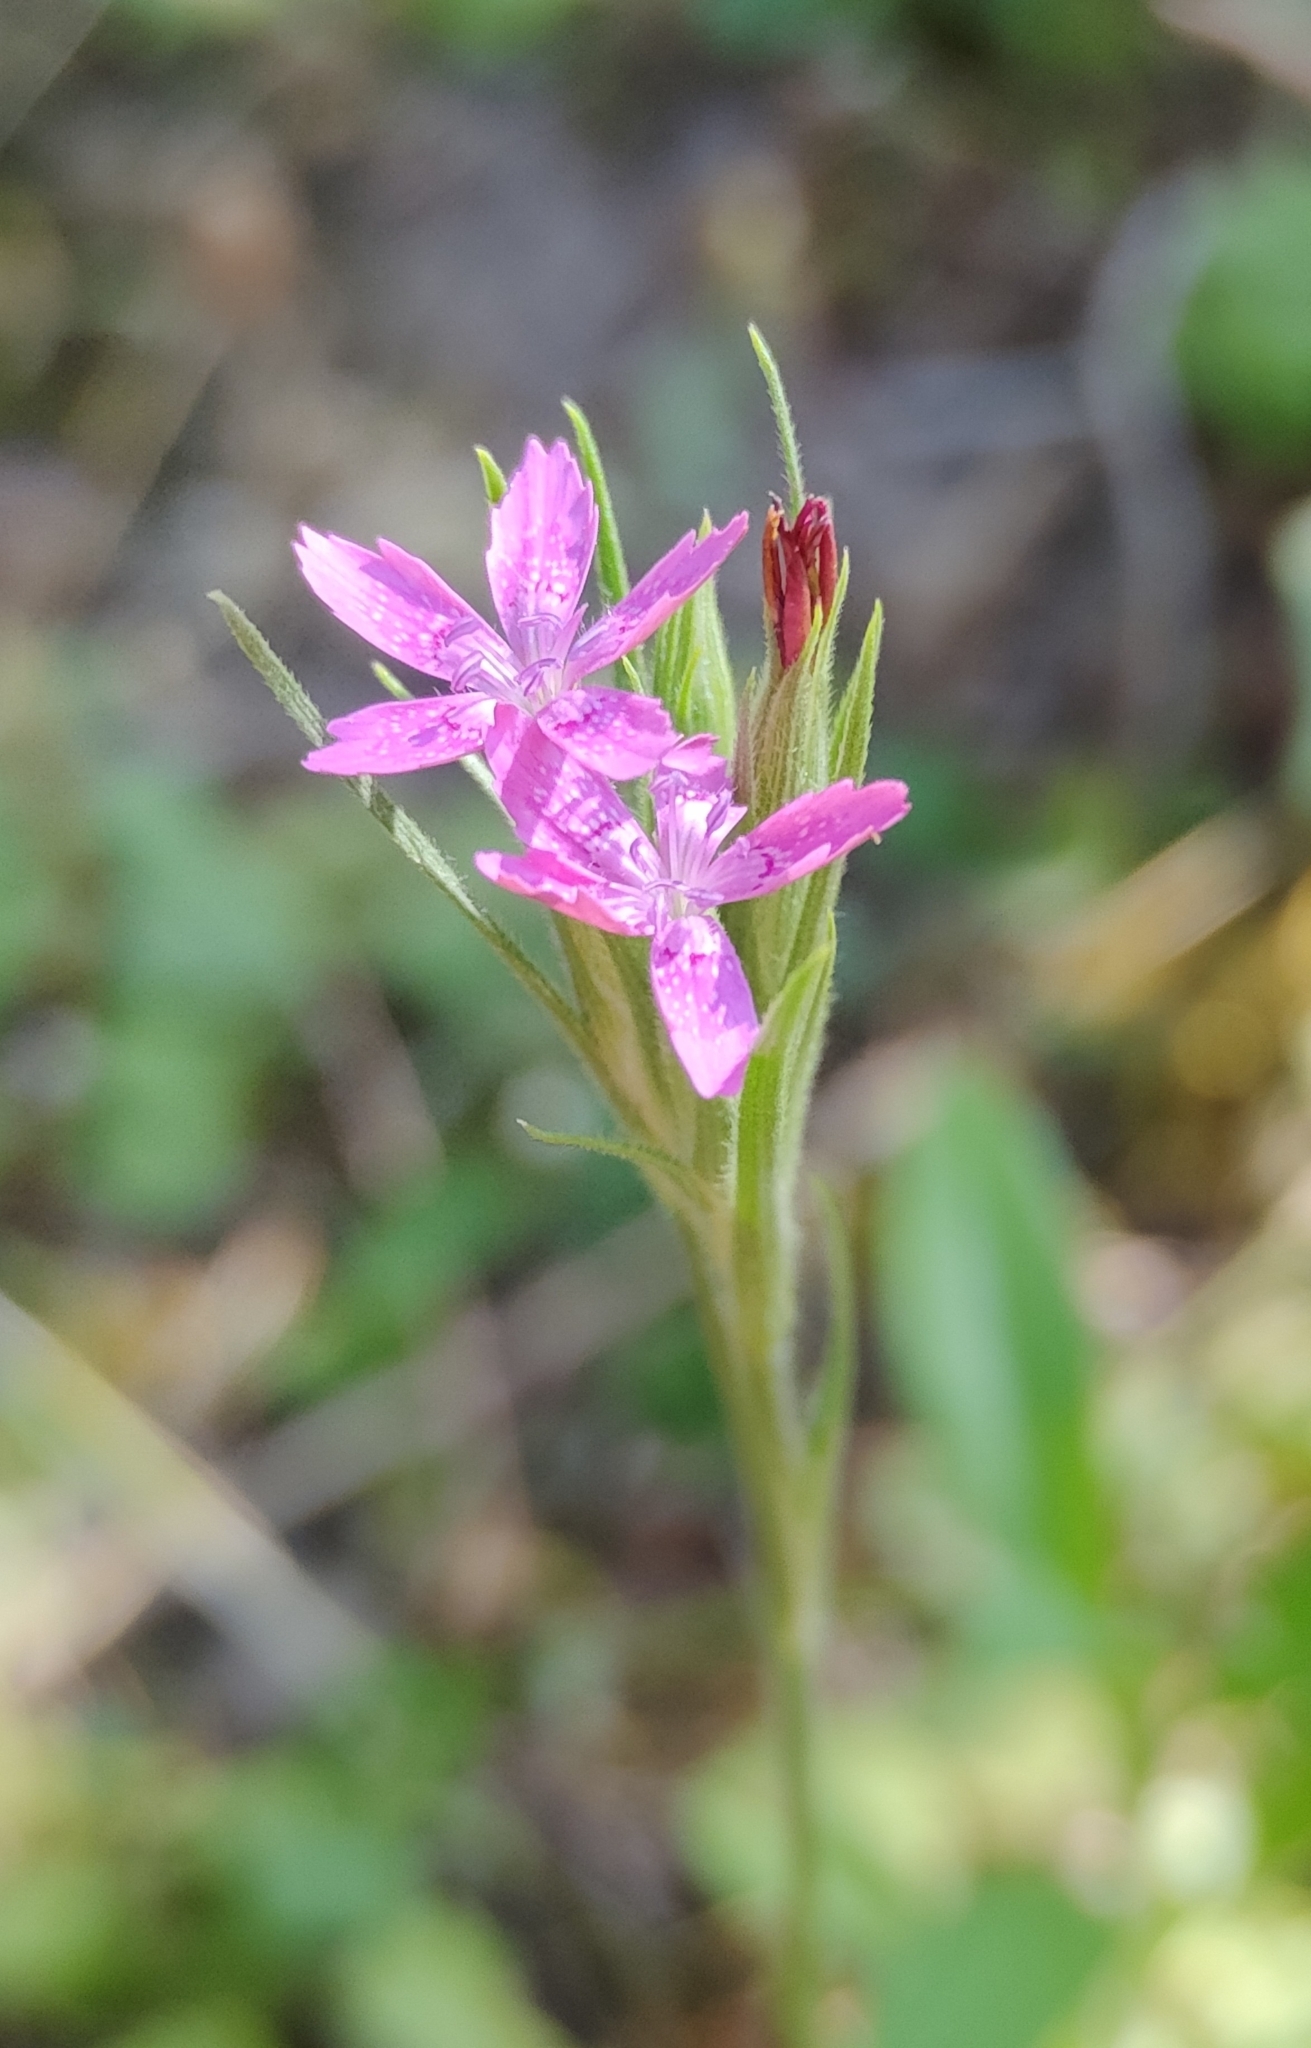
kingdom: Plantae
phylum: Tracheophyta
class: Magnoliopsida
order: Caryophyllales
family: Caryophyllaceae
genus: Dianthus
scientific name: Dianthus armeria
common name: Deptford pink
